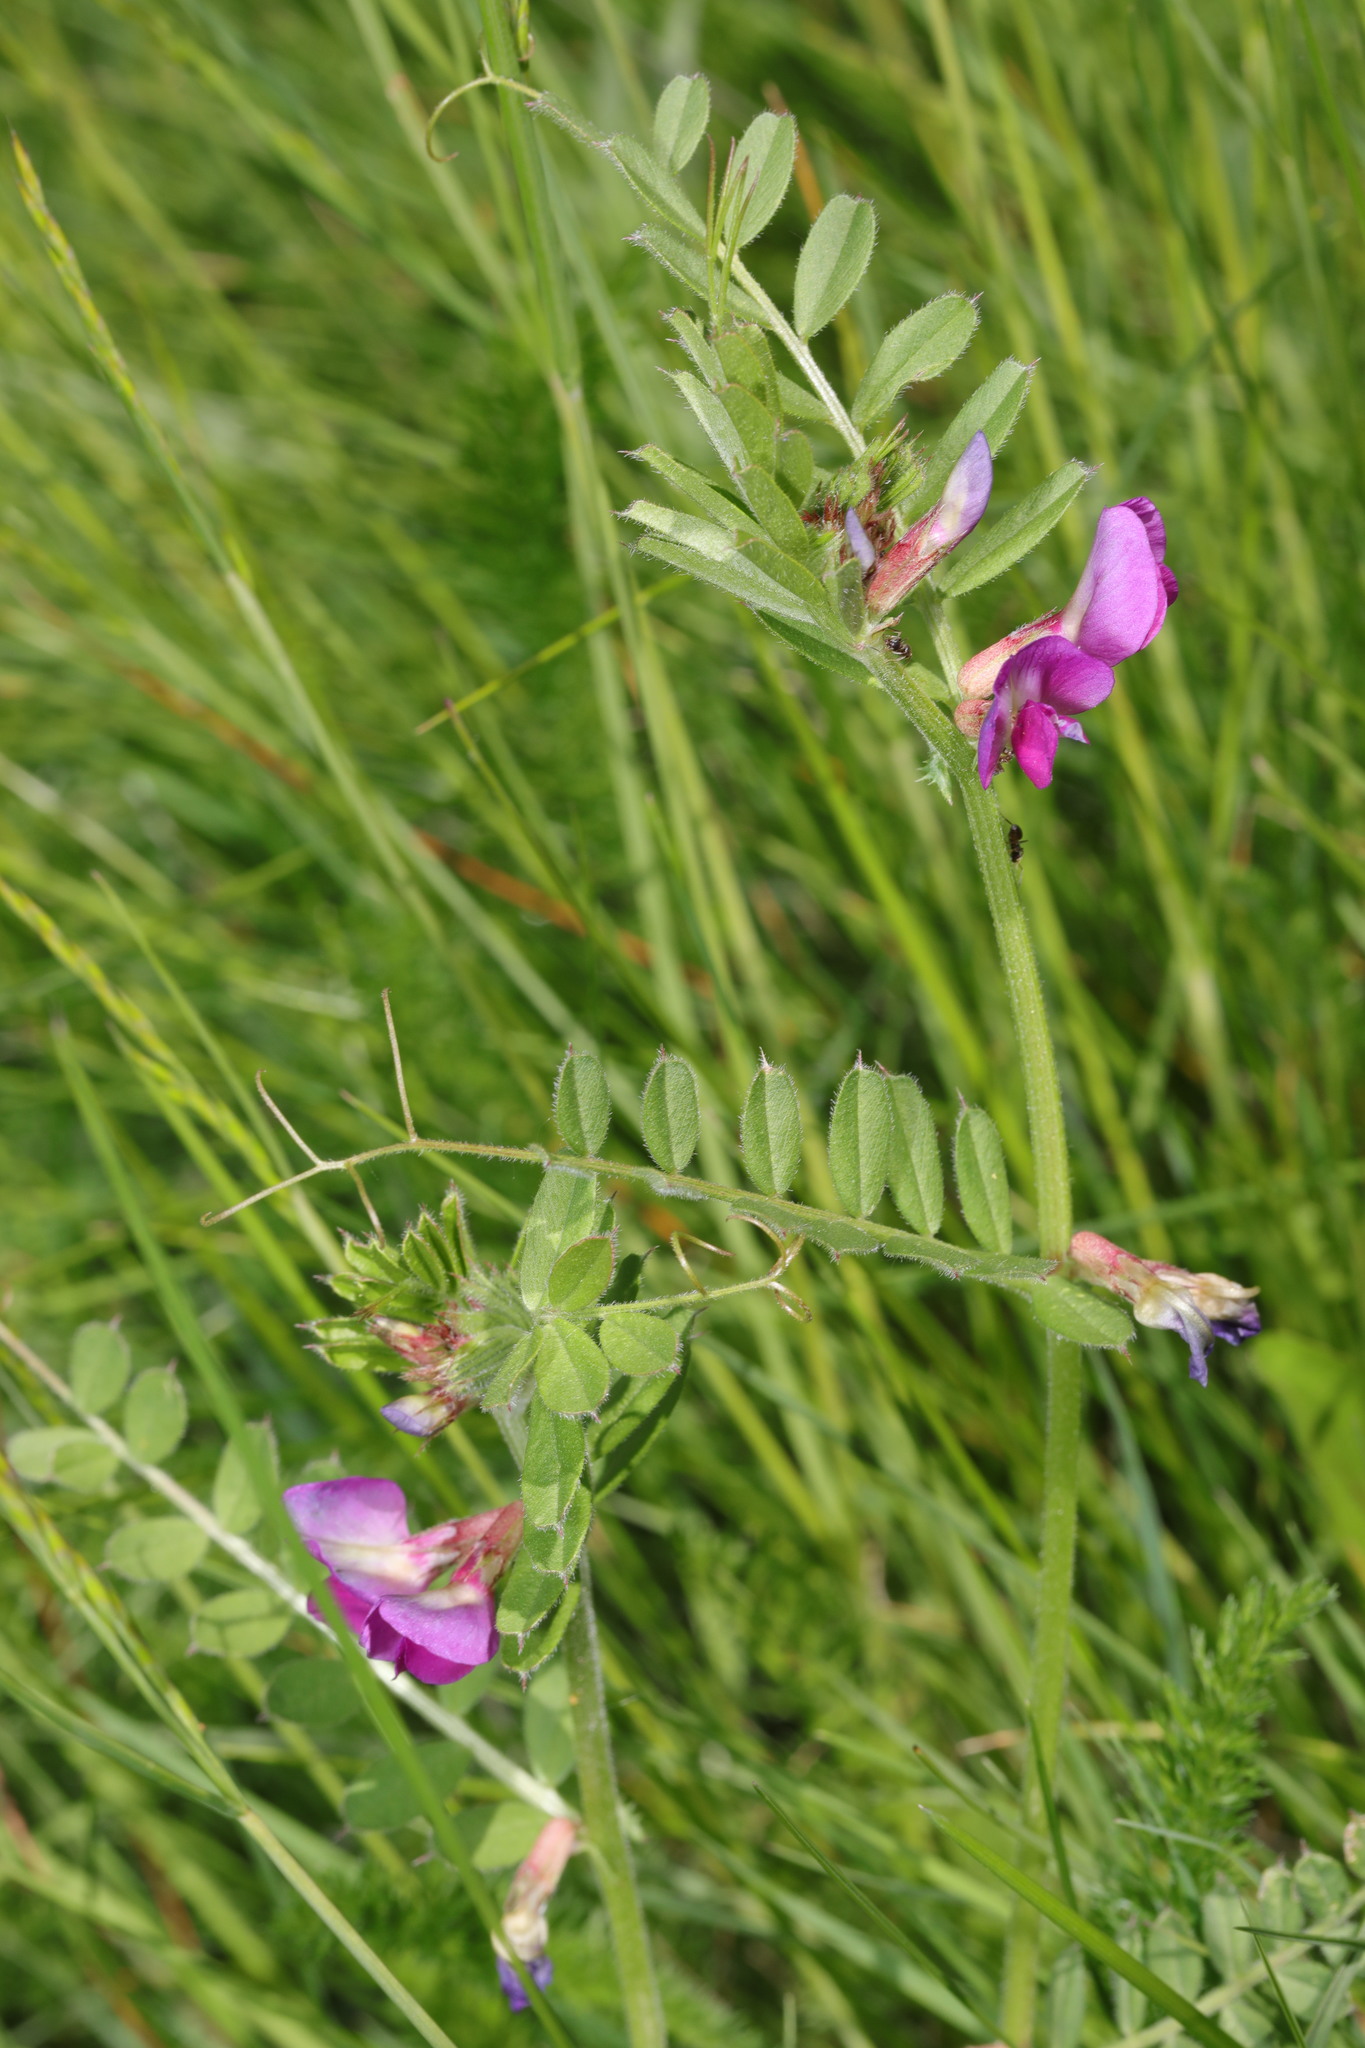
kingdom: Plantae
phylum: Tracheophyta
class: Magnoliopsida
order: Fabales
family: Fabaceae
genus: Vicia
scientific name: Vicia sativa
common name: Garden vetch
